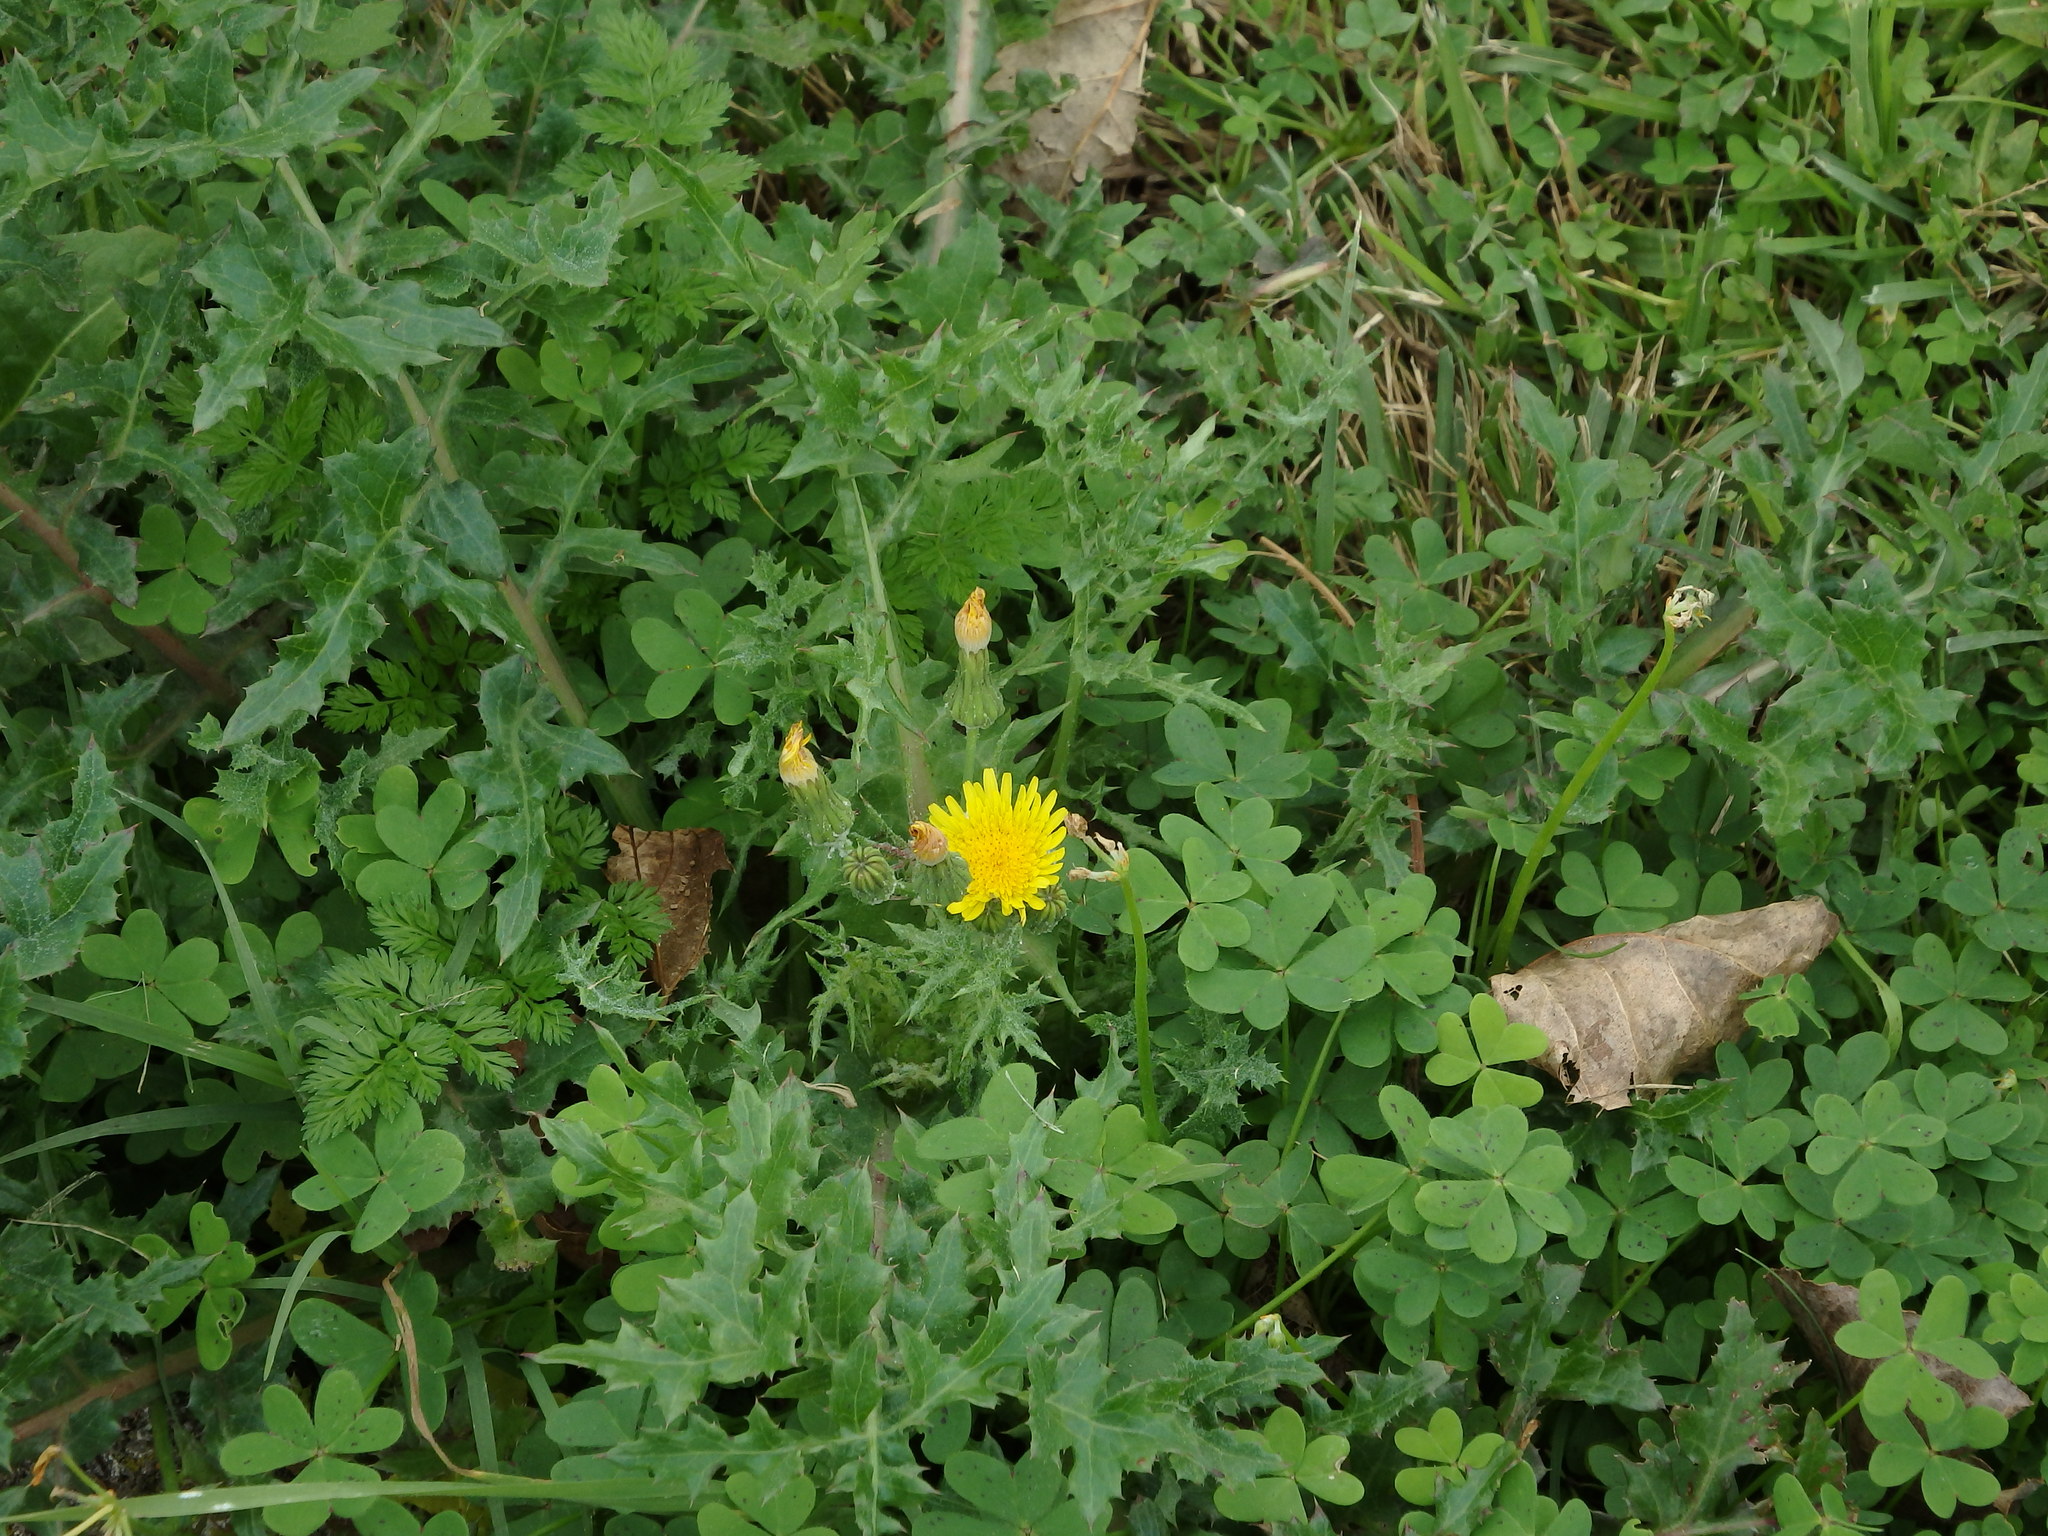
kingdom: Plantae
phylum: Tracheophyta
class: Magnoliopsida
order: Asterales
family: Asteraceae
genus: Sonchus
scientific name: Sonchus asper
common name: Prickly sow-thistle
